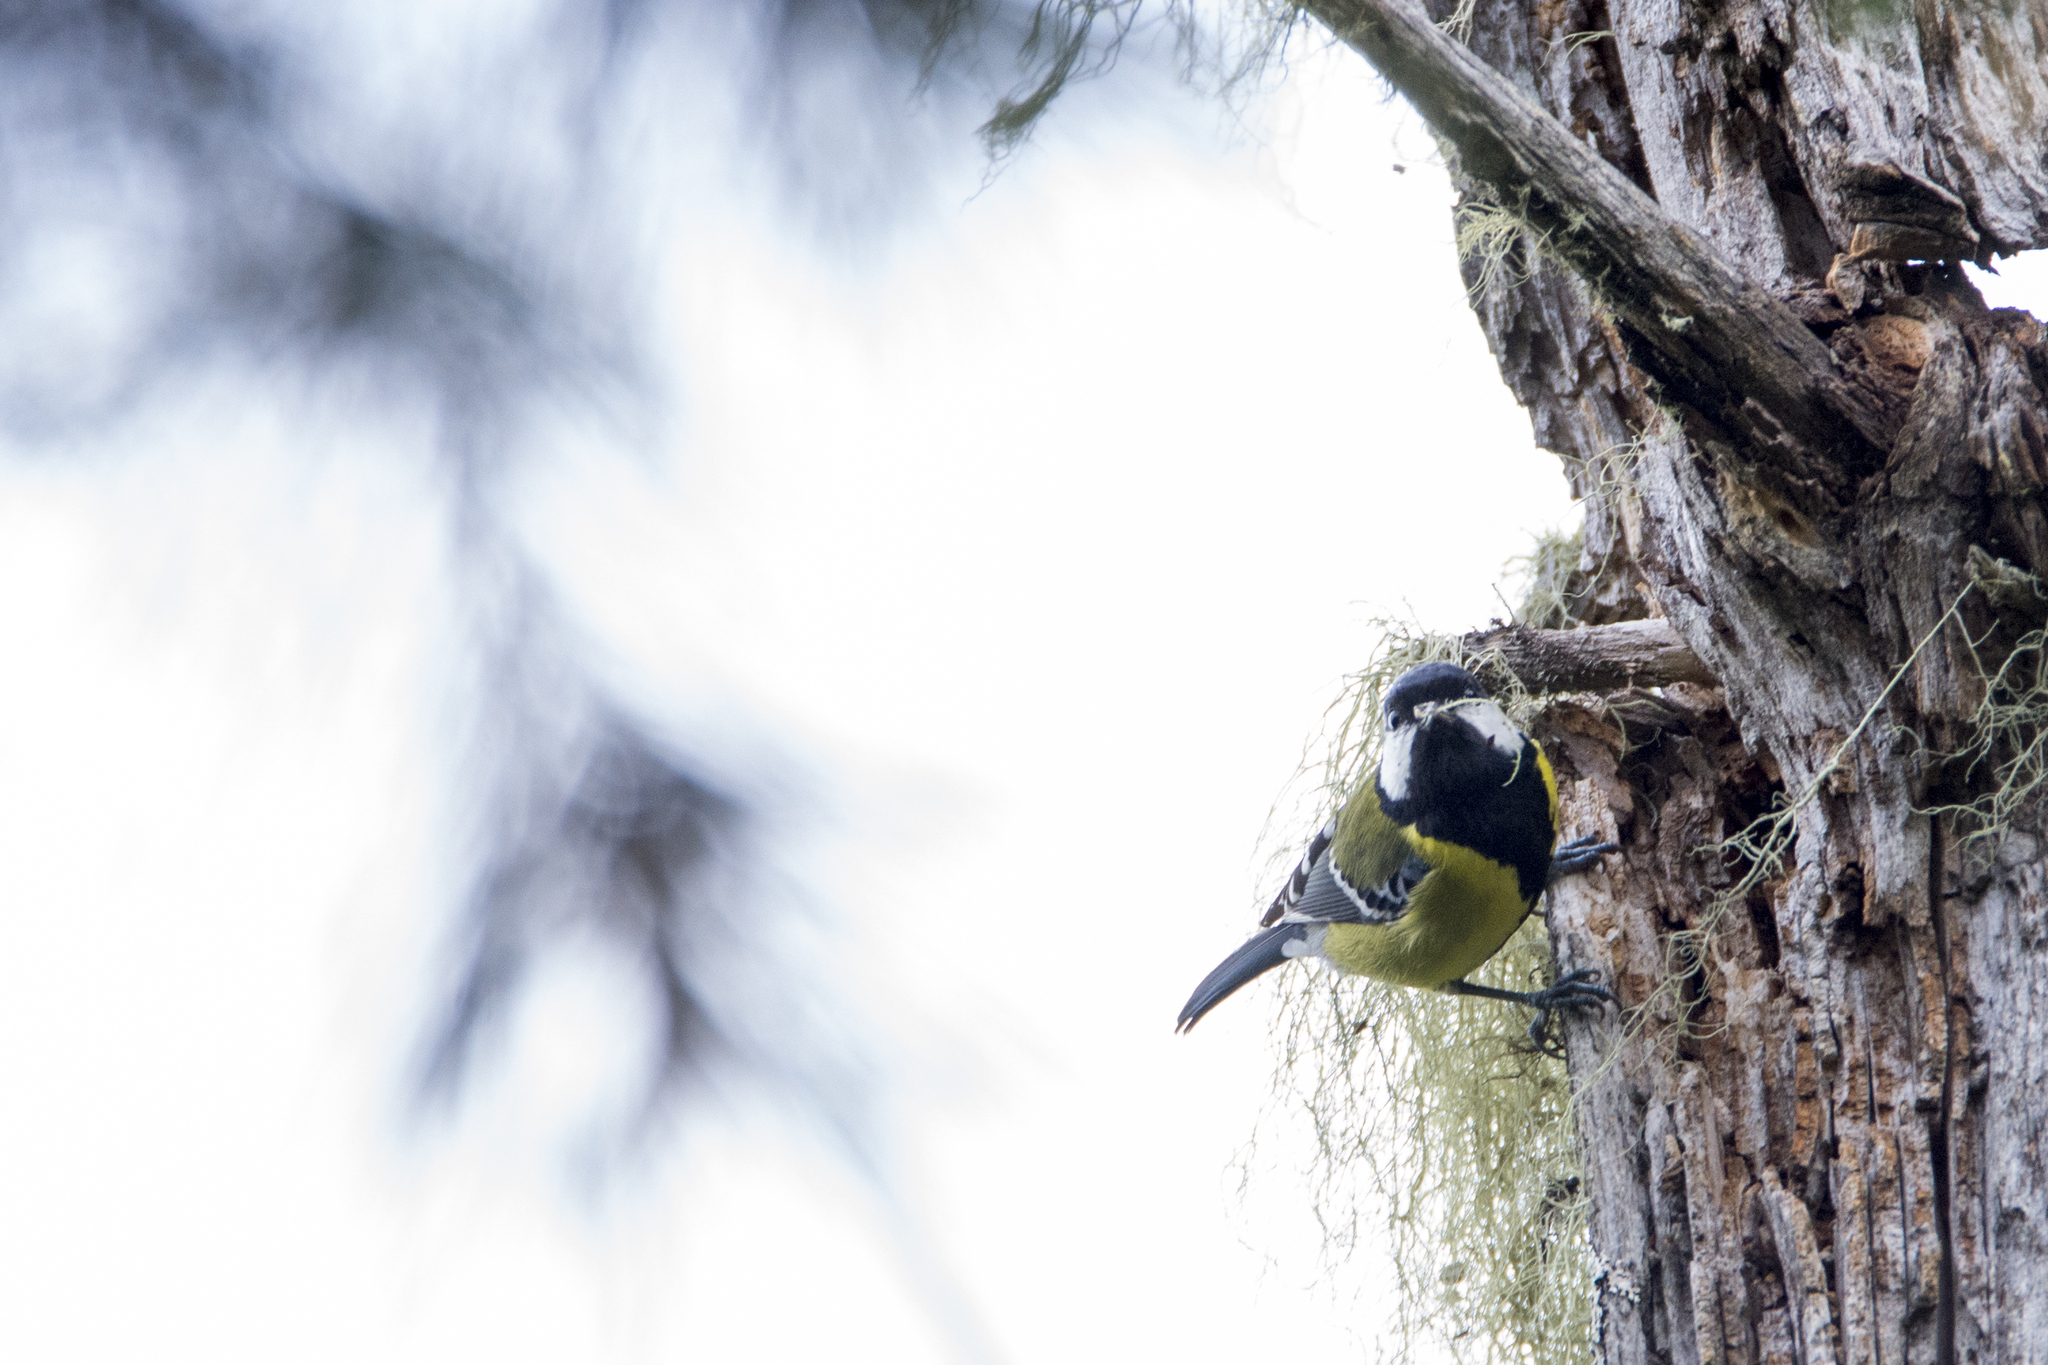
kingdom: Animalia
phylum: Chordata
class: Aves
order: Passeriformes
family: Paridae
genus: Parus
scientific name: Parus monticolus
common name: Green-backed tit
